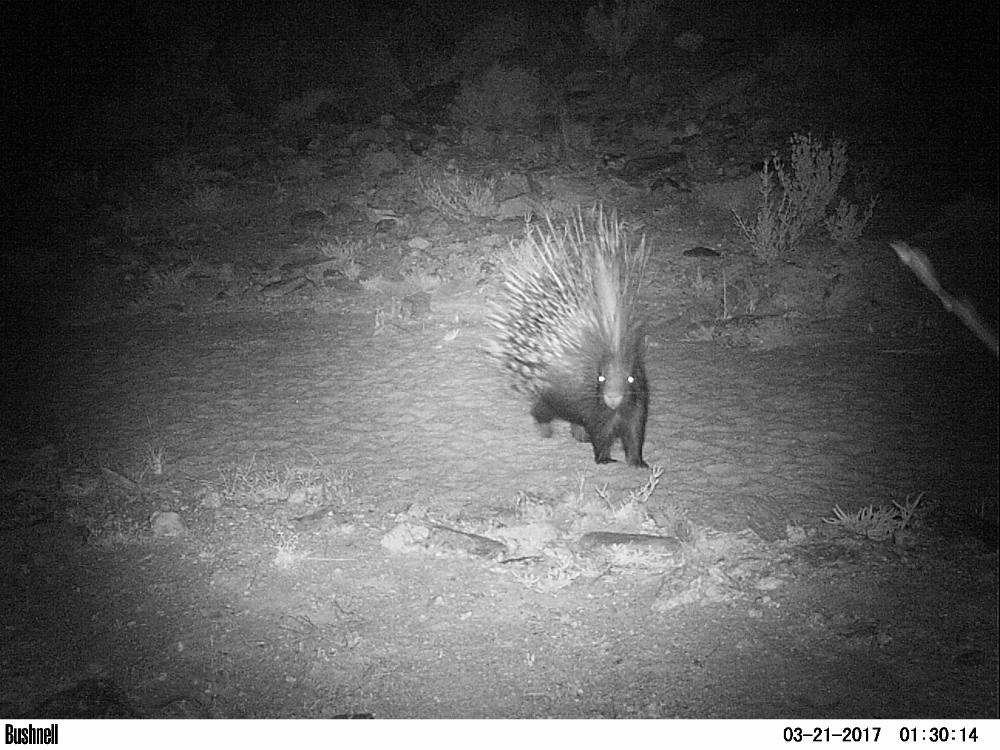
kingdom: Animalia
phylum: Chordata
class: Mammalia
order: Rodentia
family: Hystricidae
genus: Hystrix
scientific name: Hystrix africaeaustralis
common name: Cape porcupine
